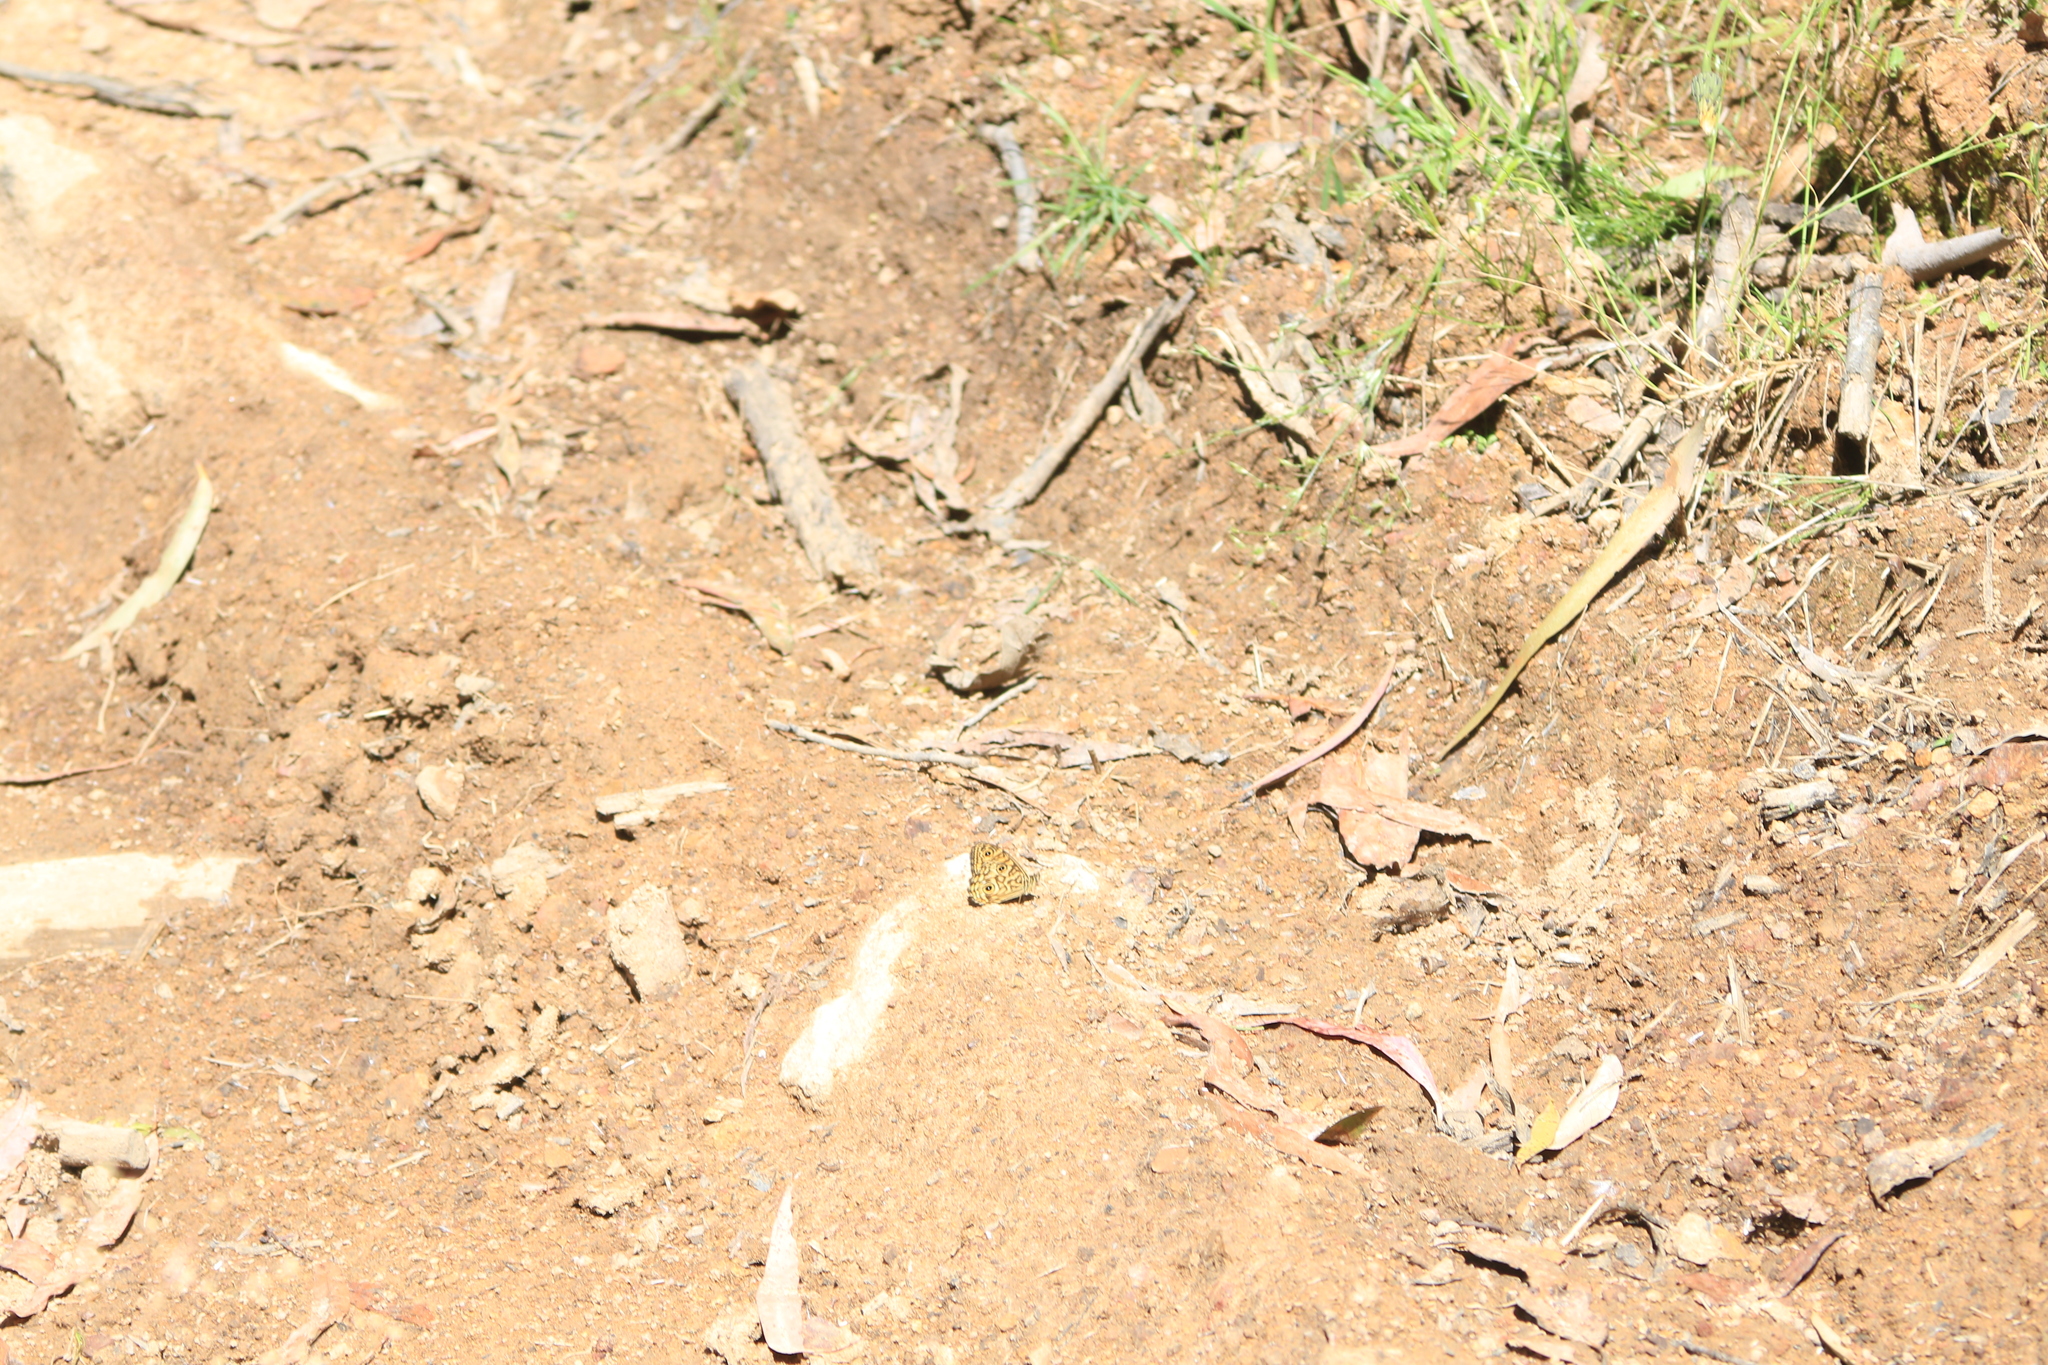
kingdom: Animalia
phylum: Arthropoda
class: Insecta
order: Lepidoptera
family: Nymphalidae
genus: Geitoneura
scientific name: Geitoneura acantha
